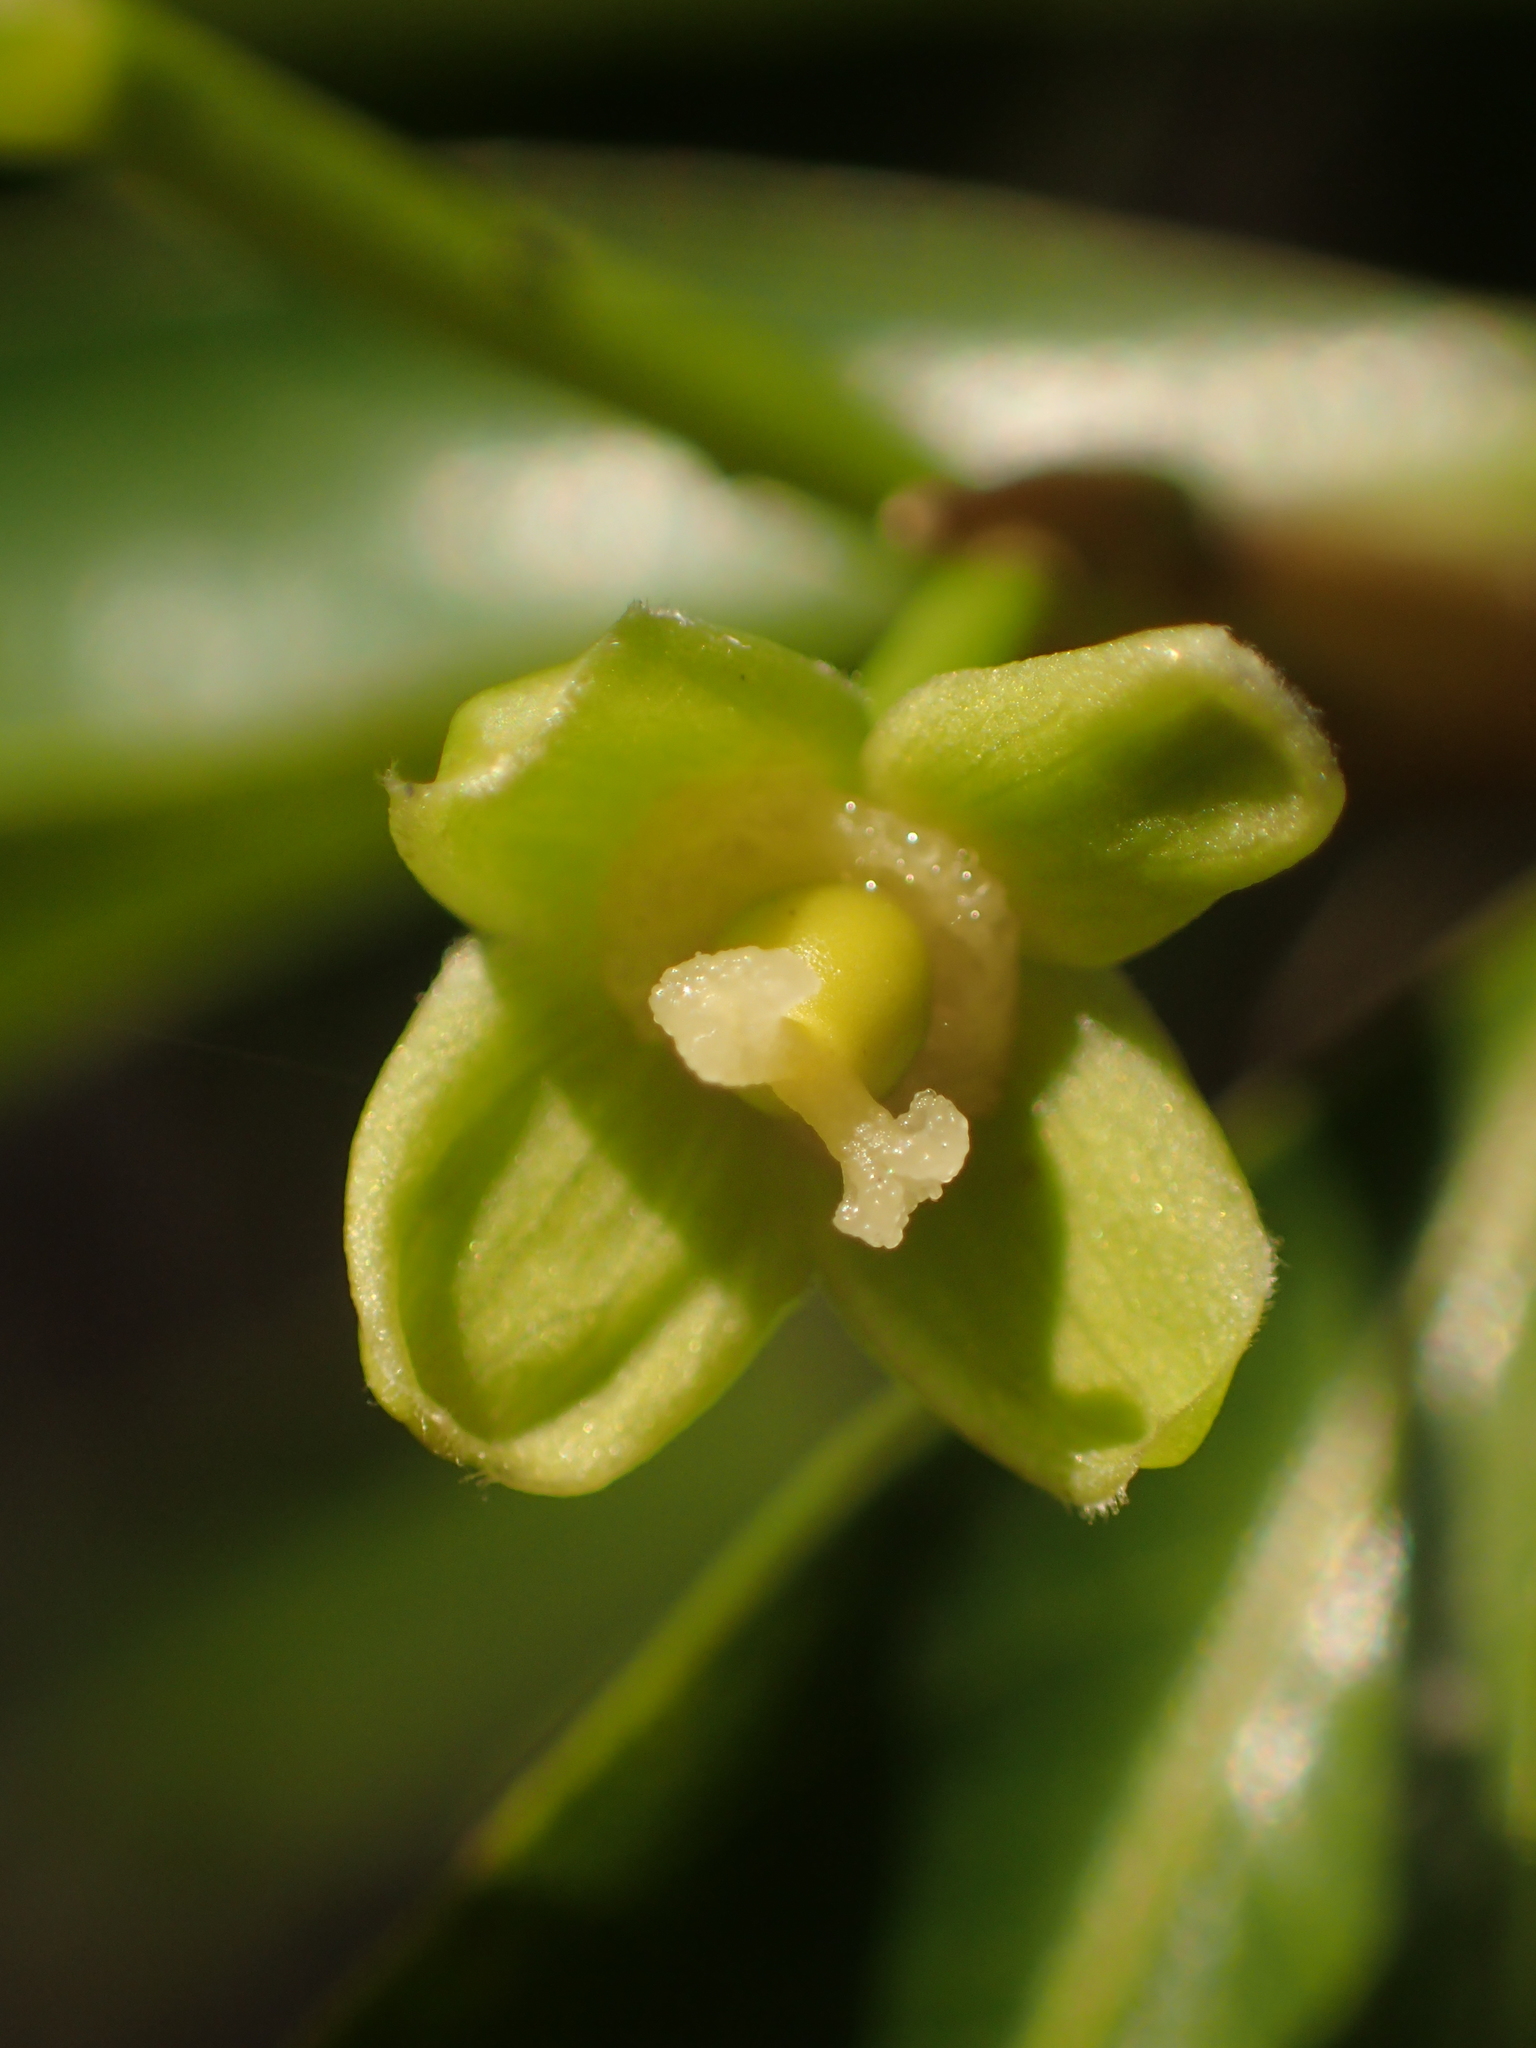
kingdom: Plantae
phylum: Tracheophyta
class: Magnoliopsida
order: Malpighiales
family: Putranjivaceae
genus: Drypetes
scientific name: Drypetes indica
